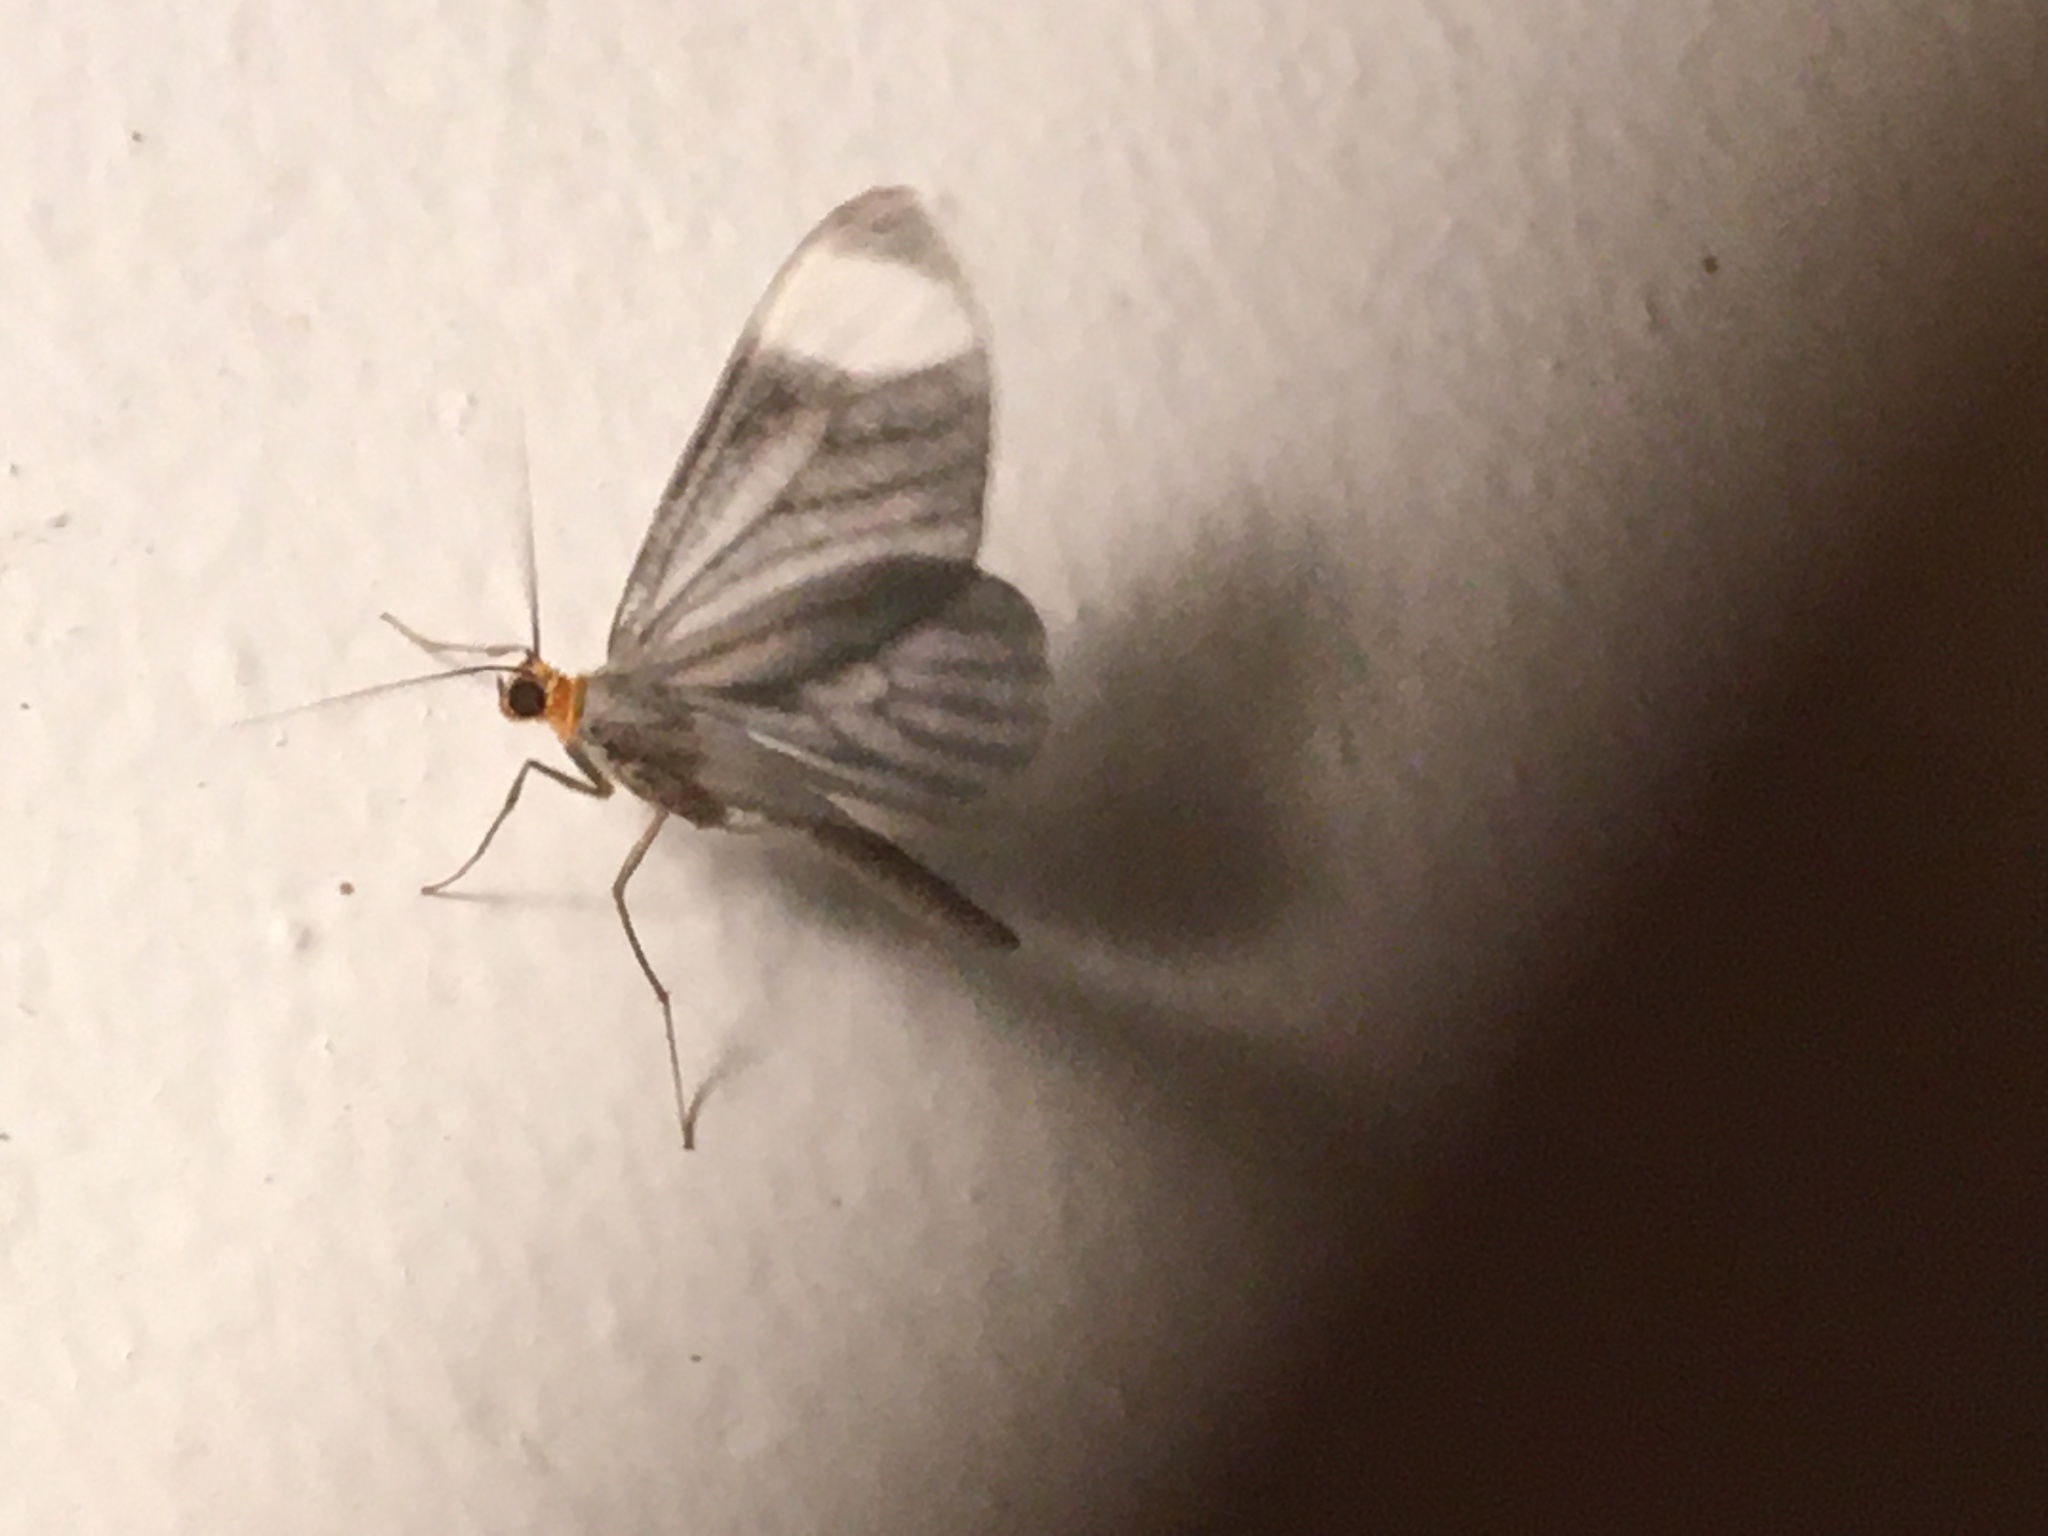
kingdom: Animalia
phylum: Arthropoda
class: Insecta
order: Lepidoptera
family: Geometridae
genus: Crocypus
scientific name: Crocypus perlucidaria
